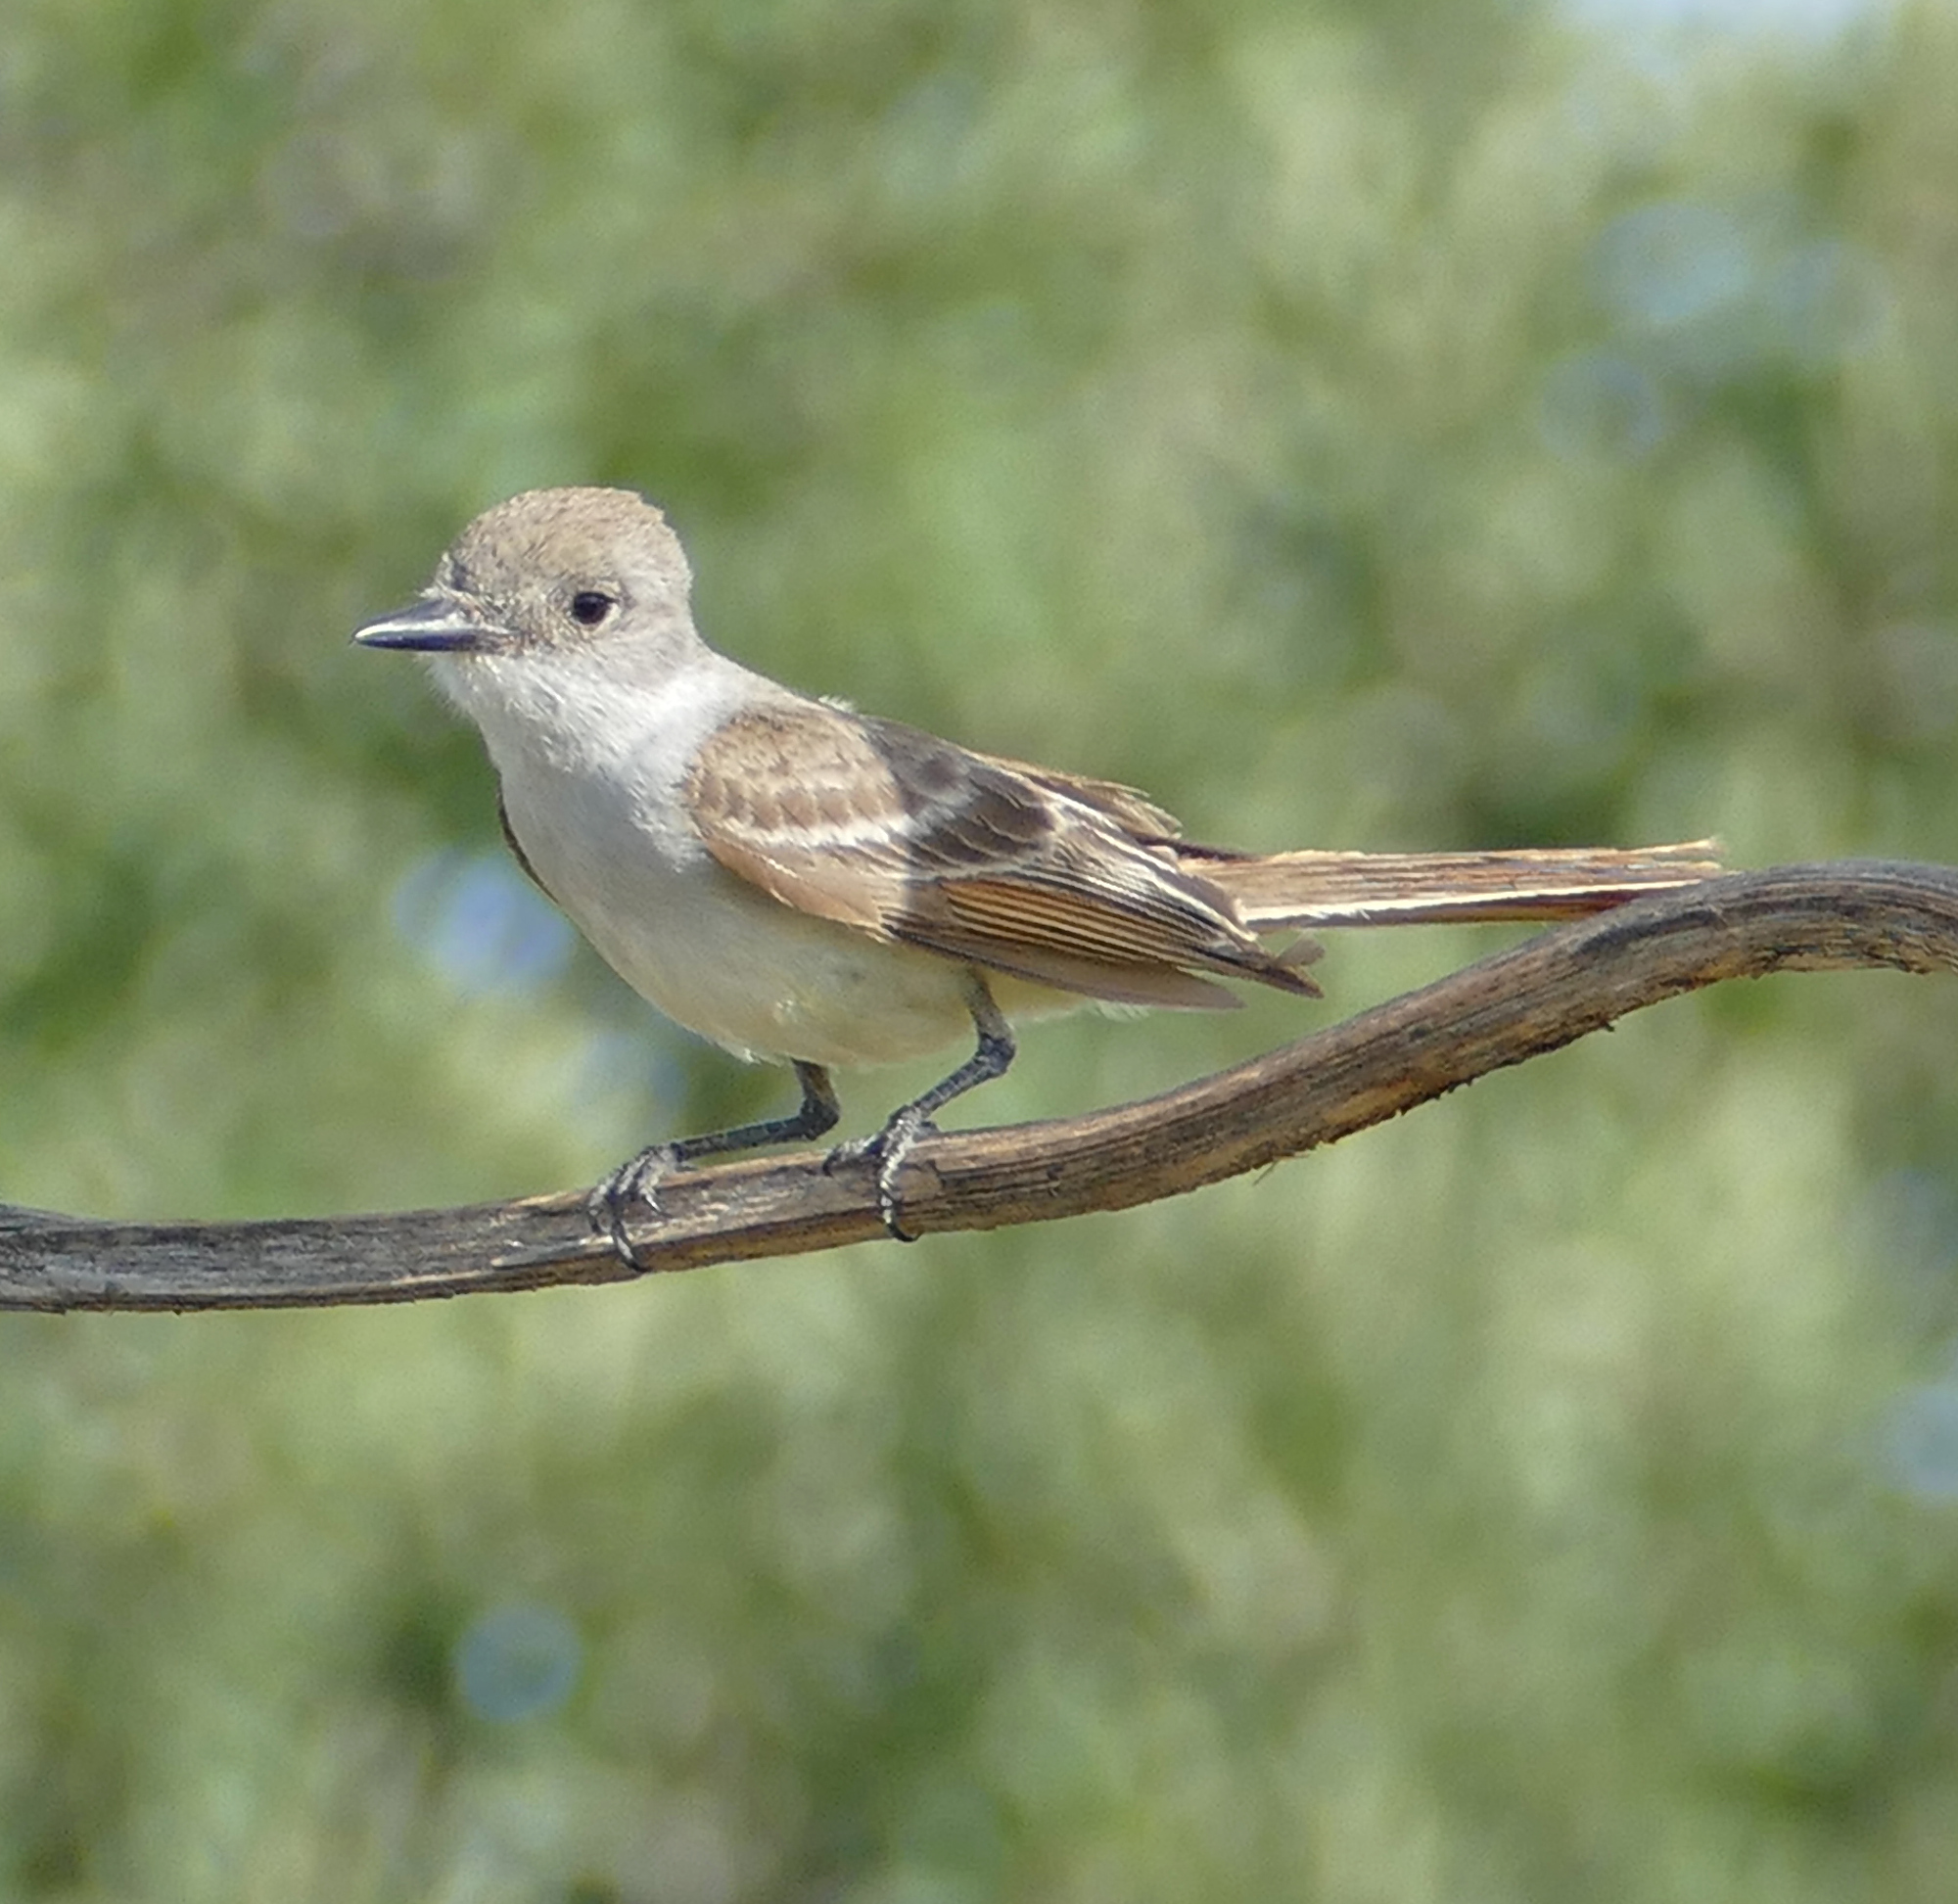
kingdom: Animalia
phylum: Chordata
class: Aves
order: Passeriformes
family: Tyrannidae
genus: Myiarchus
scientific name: Myiarchus cinerascens
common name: Ash-throated flycatcher
